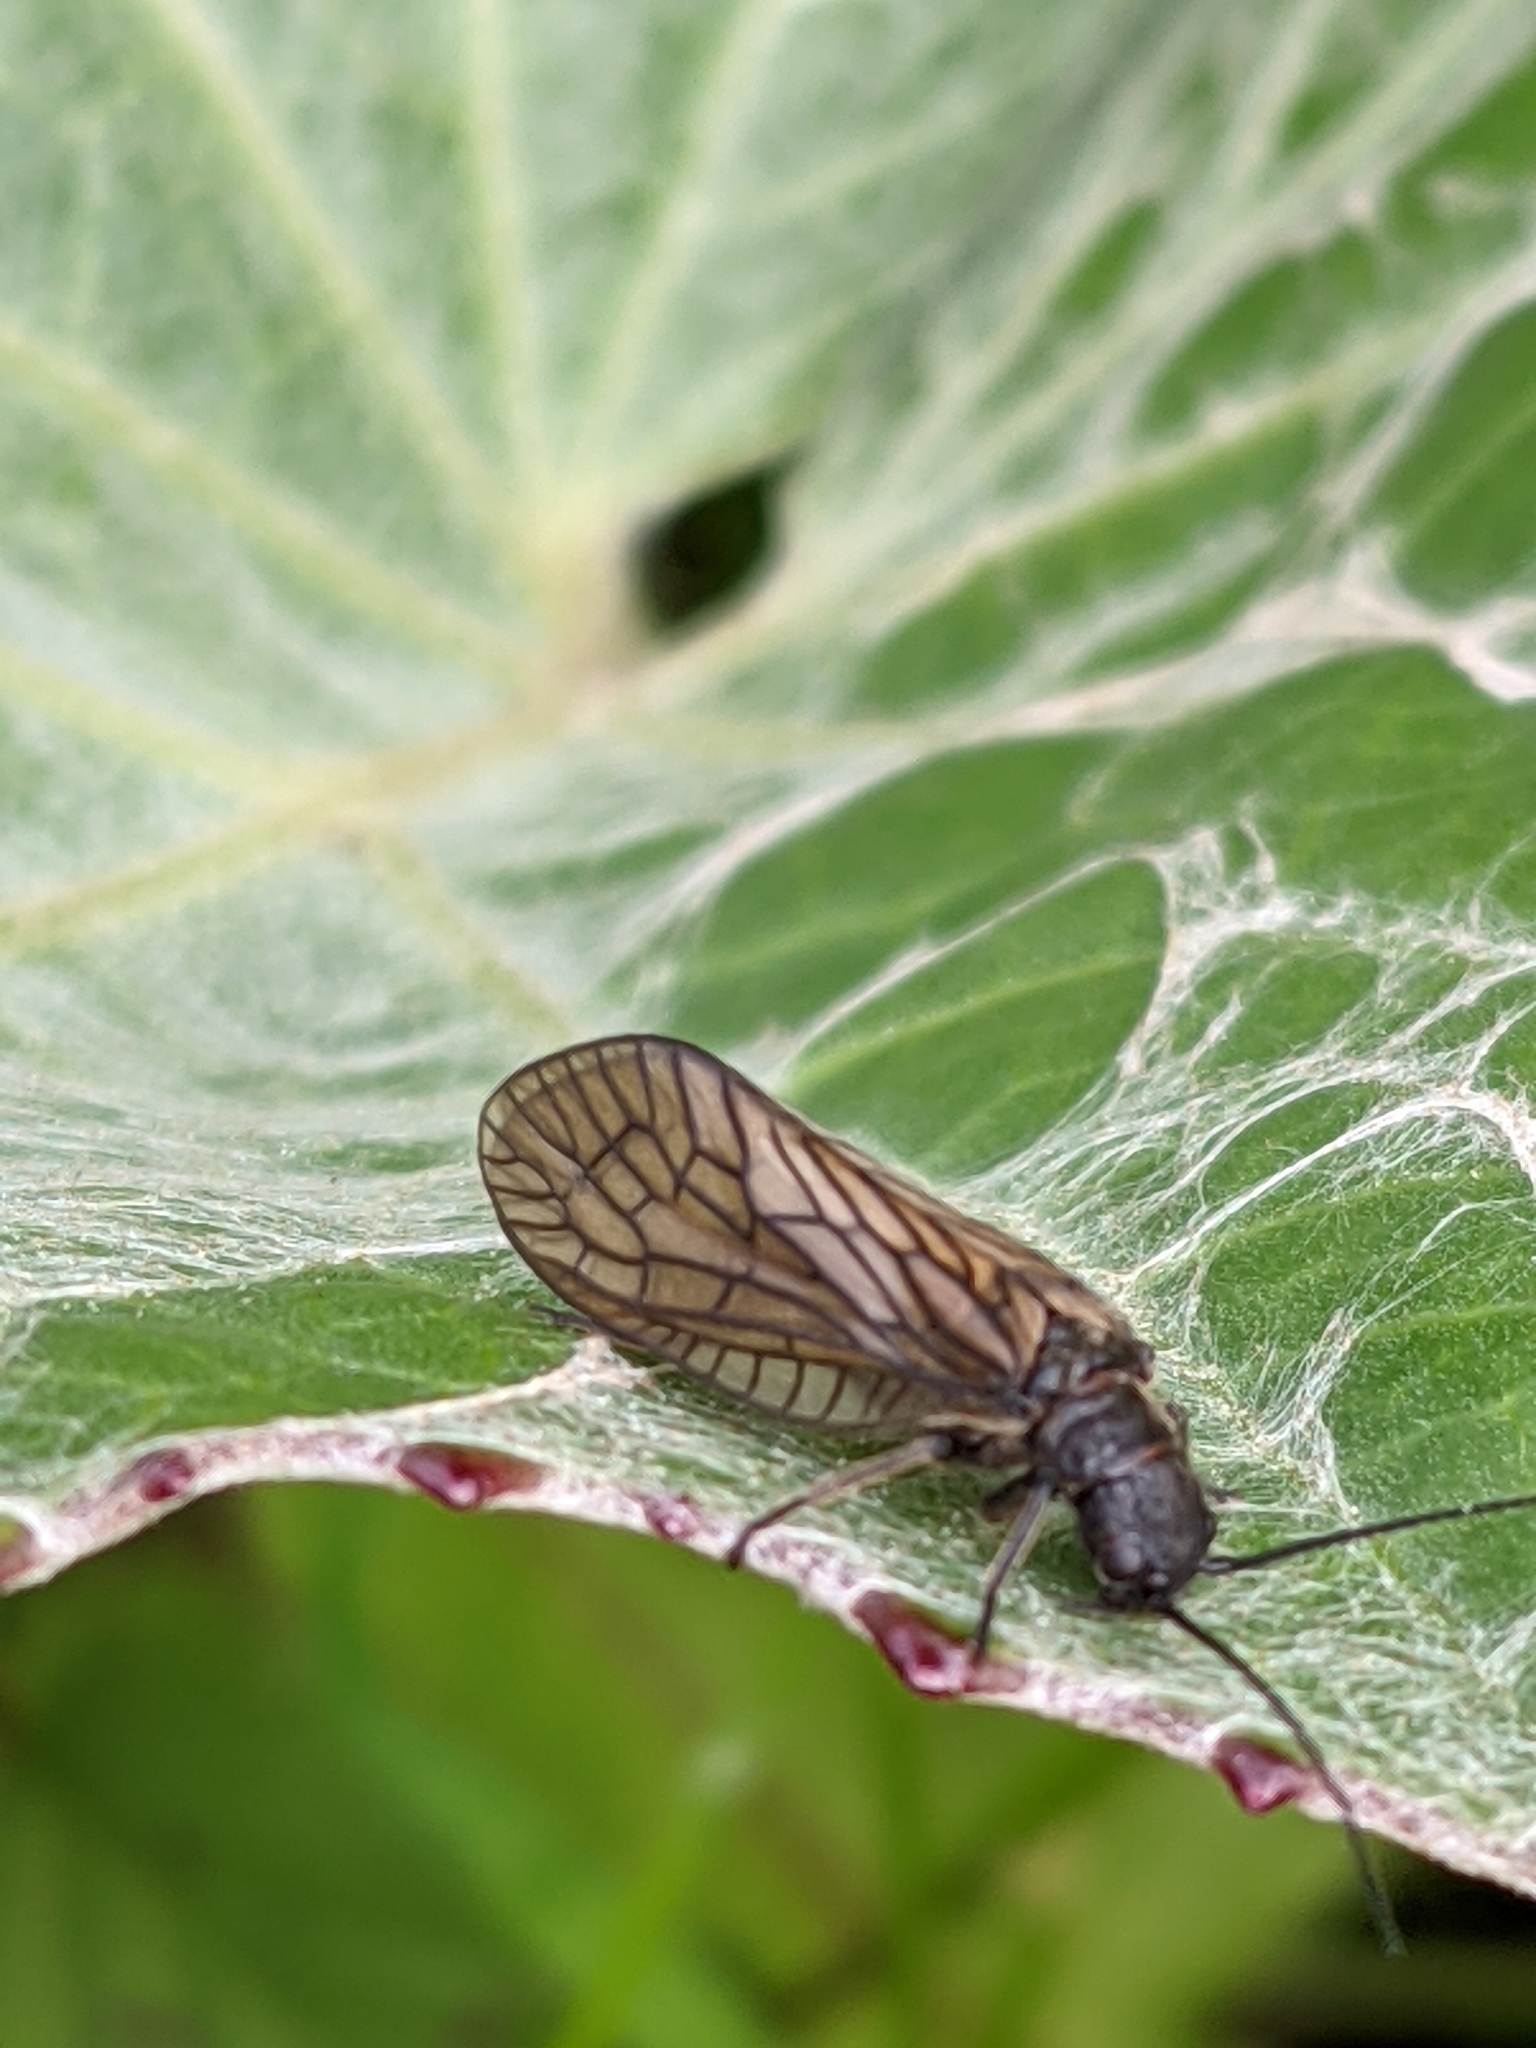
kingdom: Animalia
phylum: Arthropoda
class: Insecta
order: Megaloptera
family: Sialidae
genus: Sialis
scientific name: Sialis
